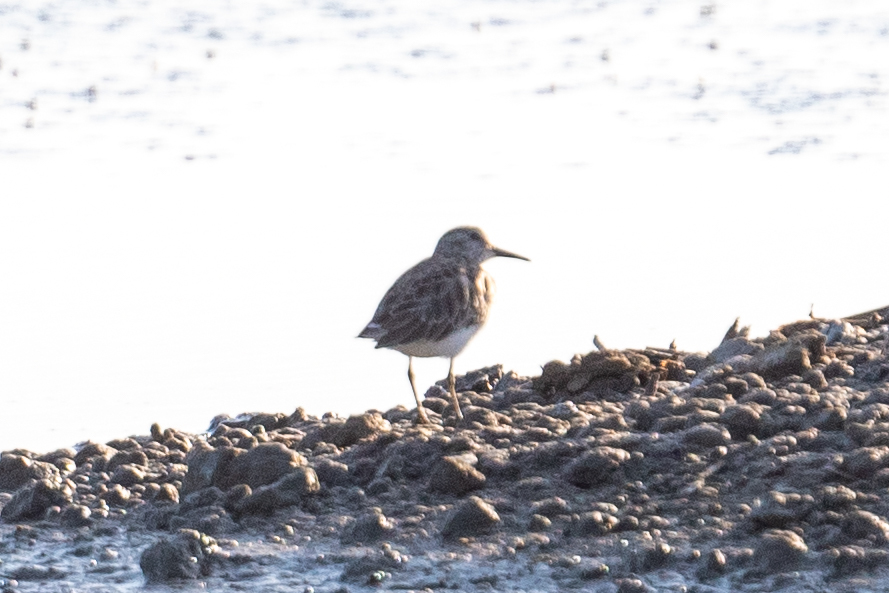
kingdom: Animalia
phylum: Chordata
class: Aves
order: Charadriiformes
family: Scolopacidae
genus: Calidris
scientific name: Calidris minutilla
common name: Least sandpiper
